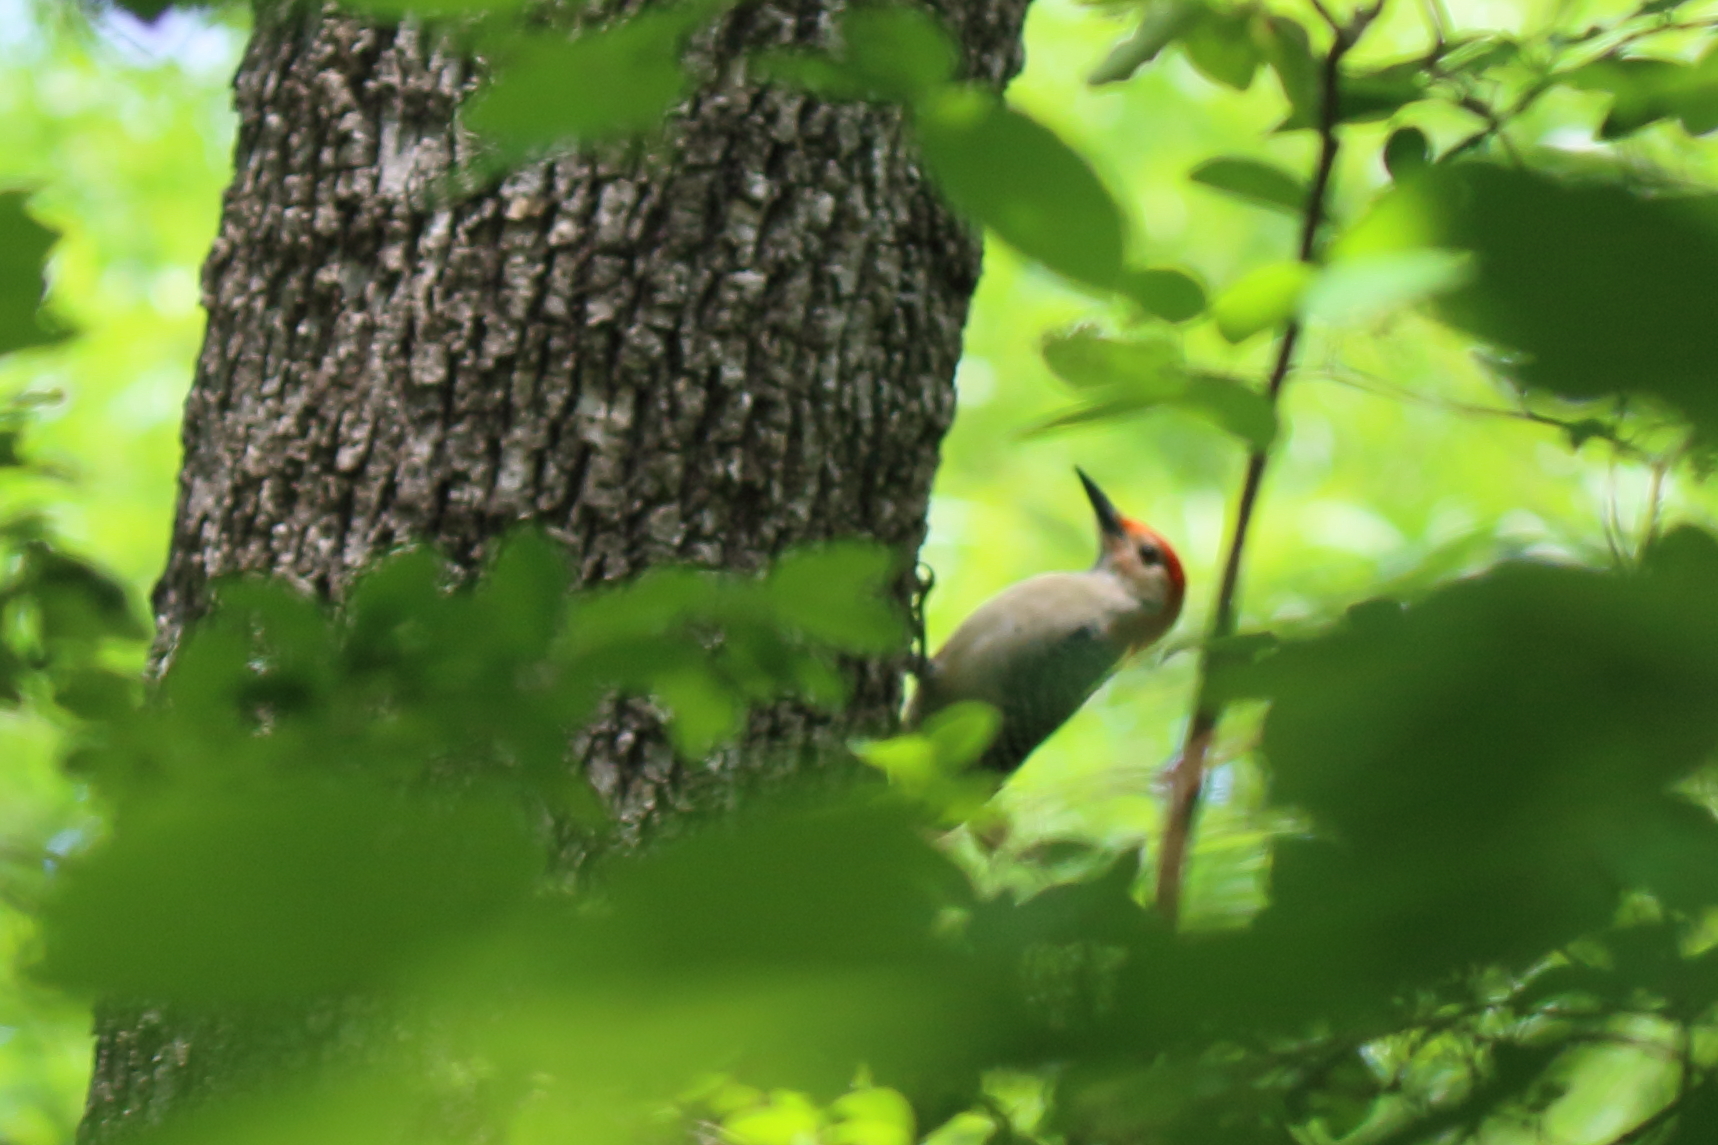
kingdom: Animalia
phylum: Chordata
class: Aves
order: Piciformes
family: Picidae
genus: Melanerpes
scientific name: Melanerpes carolinus
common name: Red-bellied woodpecker
